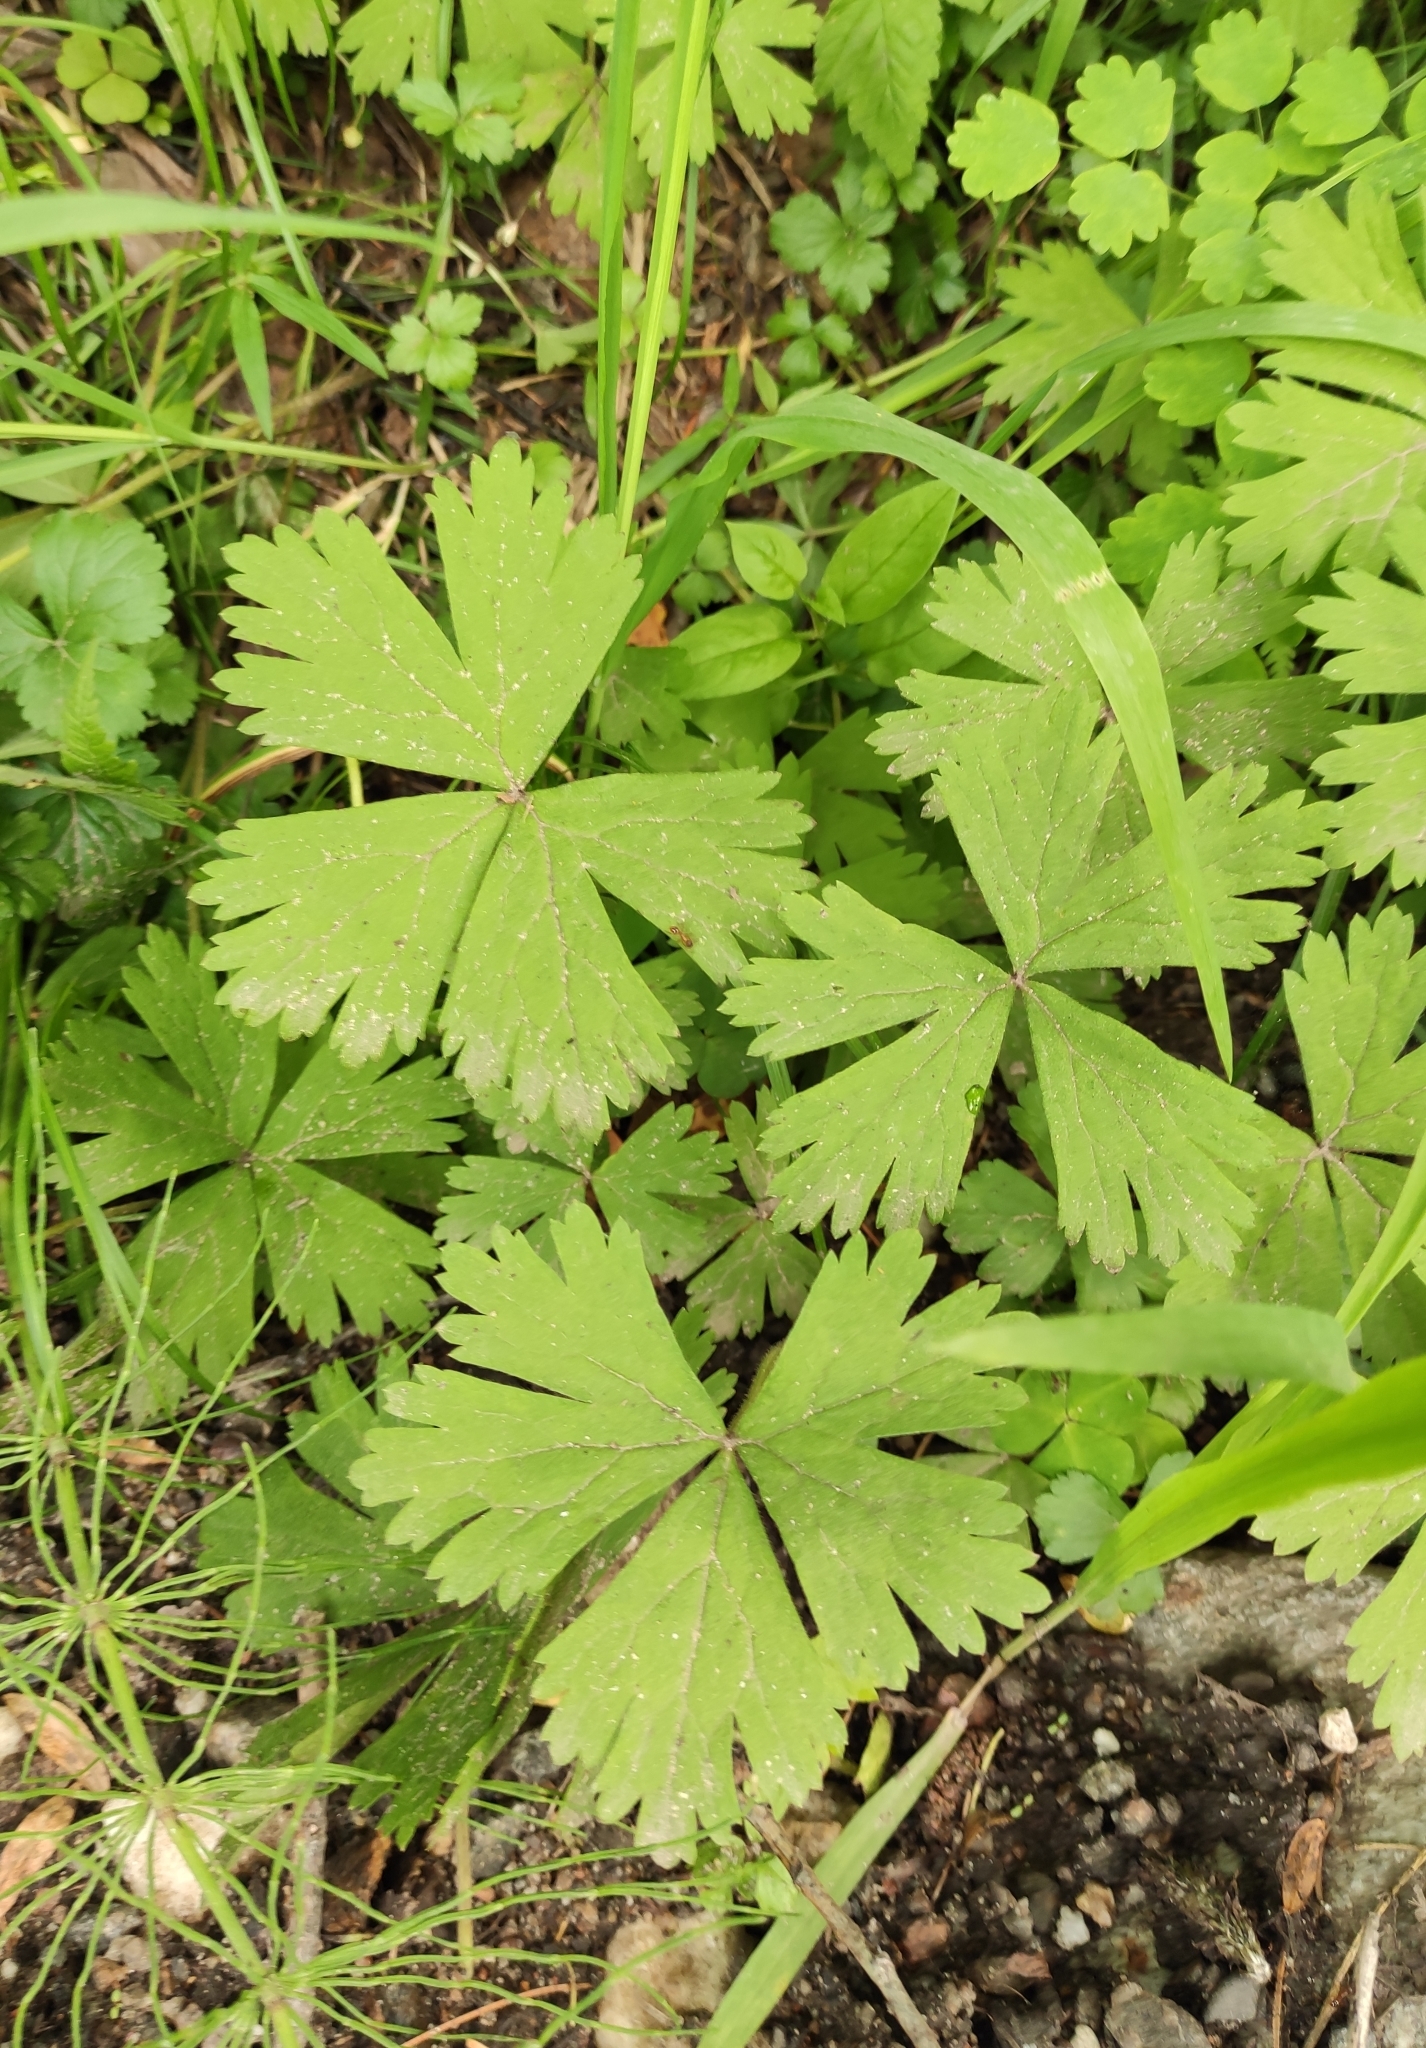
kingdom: Plantae
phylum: Tracheophyta
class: Magnoliopsida
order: Ranunculales
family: Ranunculaceae
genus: Anemonastrum
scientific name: Anemonastrum baicalense
